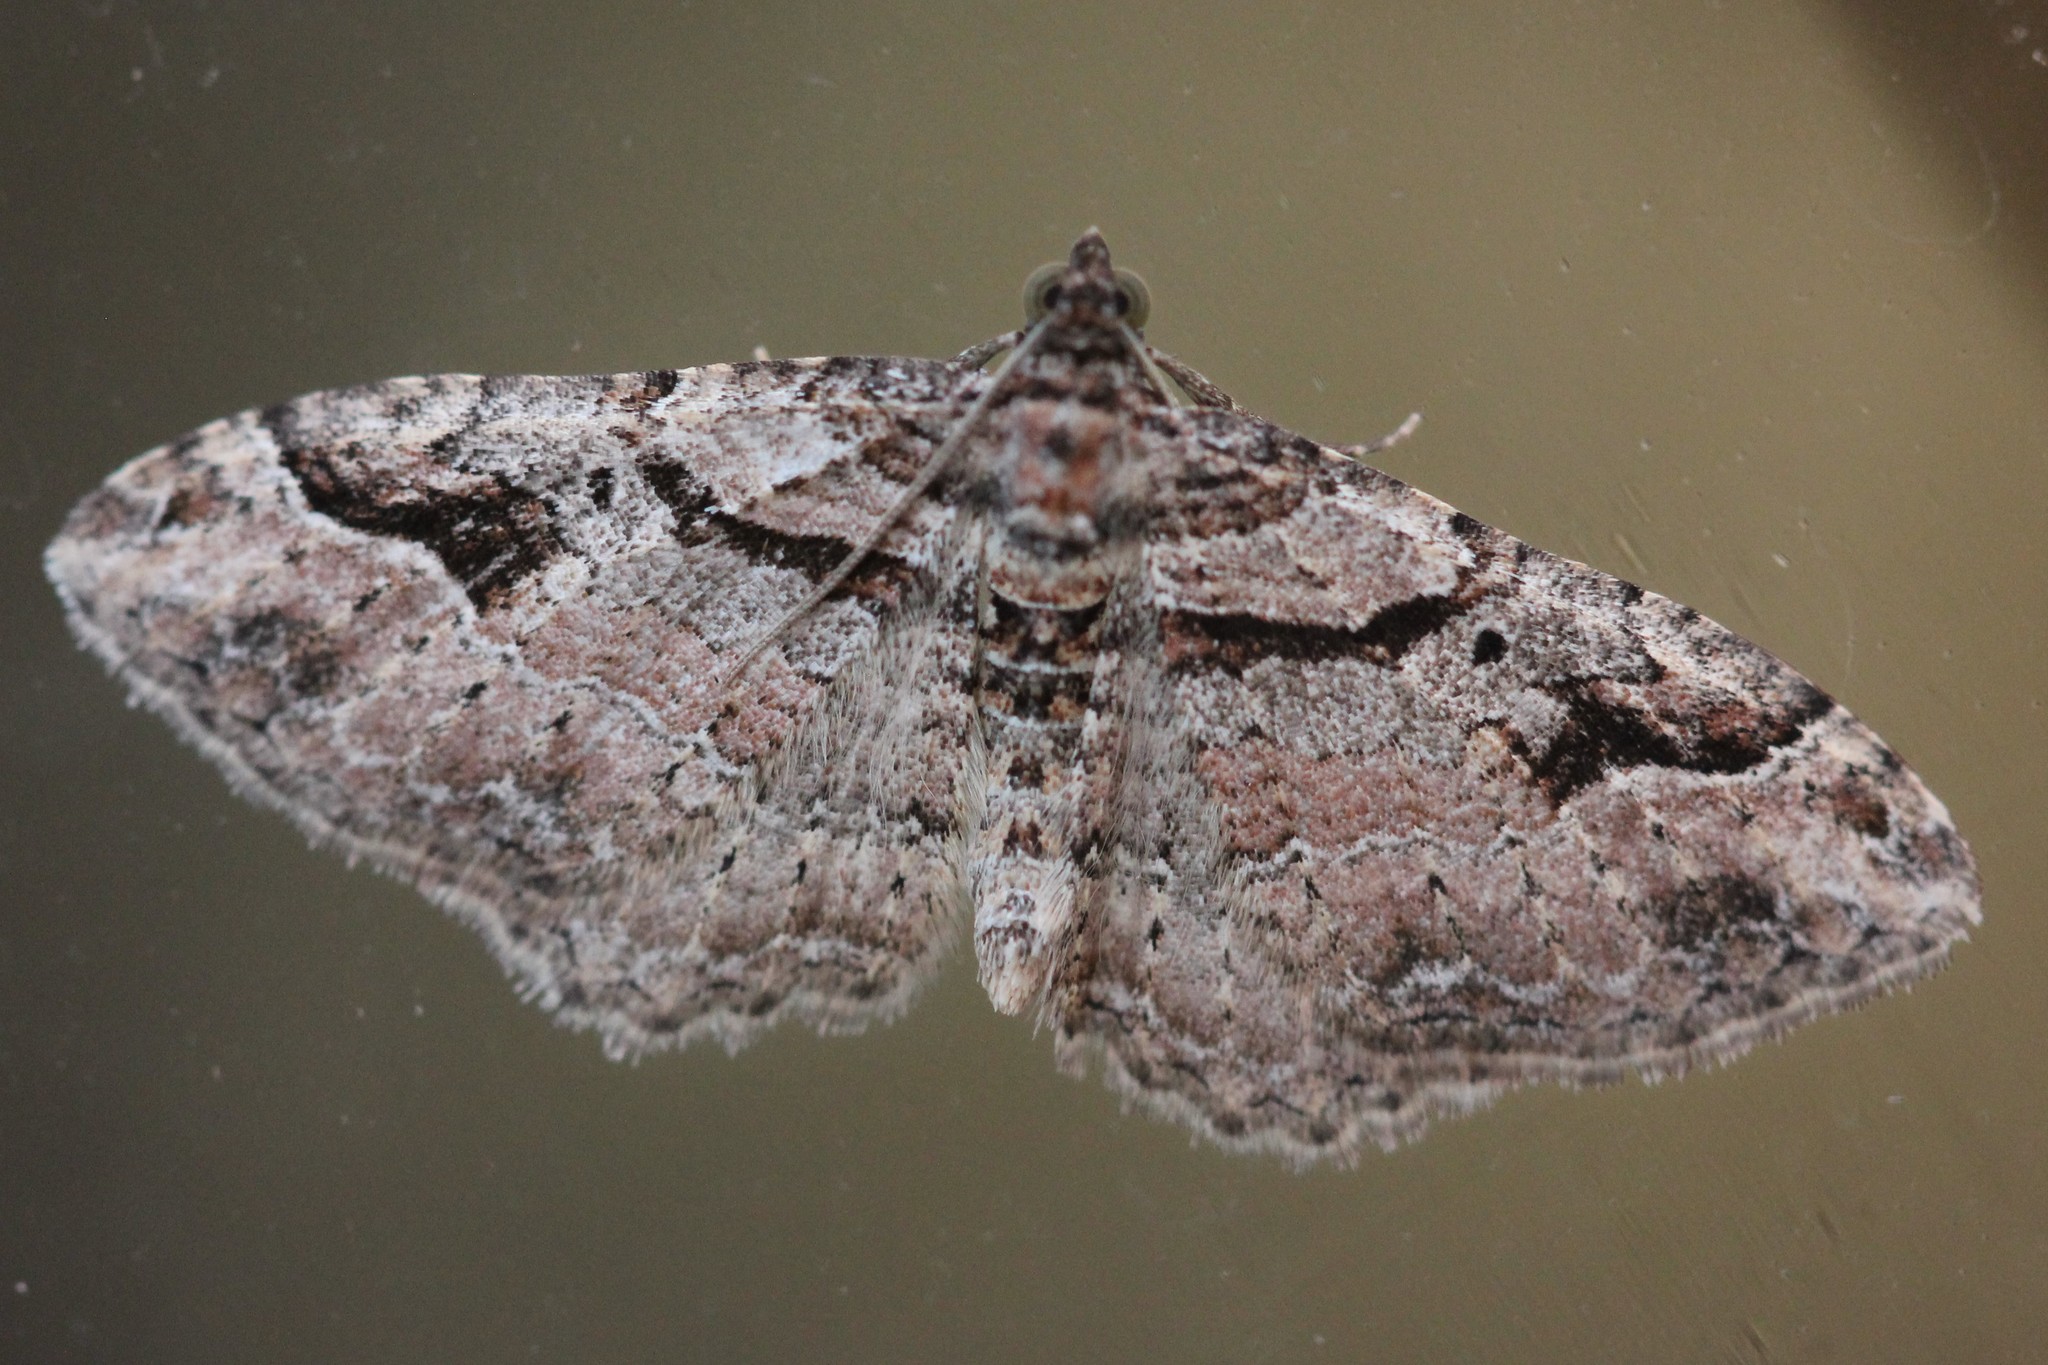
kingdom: Animalia
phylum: Arthropoda
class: Insecta
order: Lepidoptera
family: Geometridae
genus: Costaconvexa
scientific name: Costaconvexa centrostrigaria
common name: Bent-line carpet
